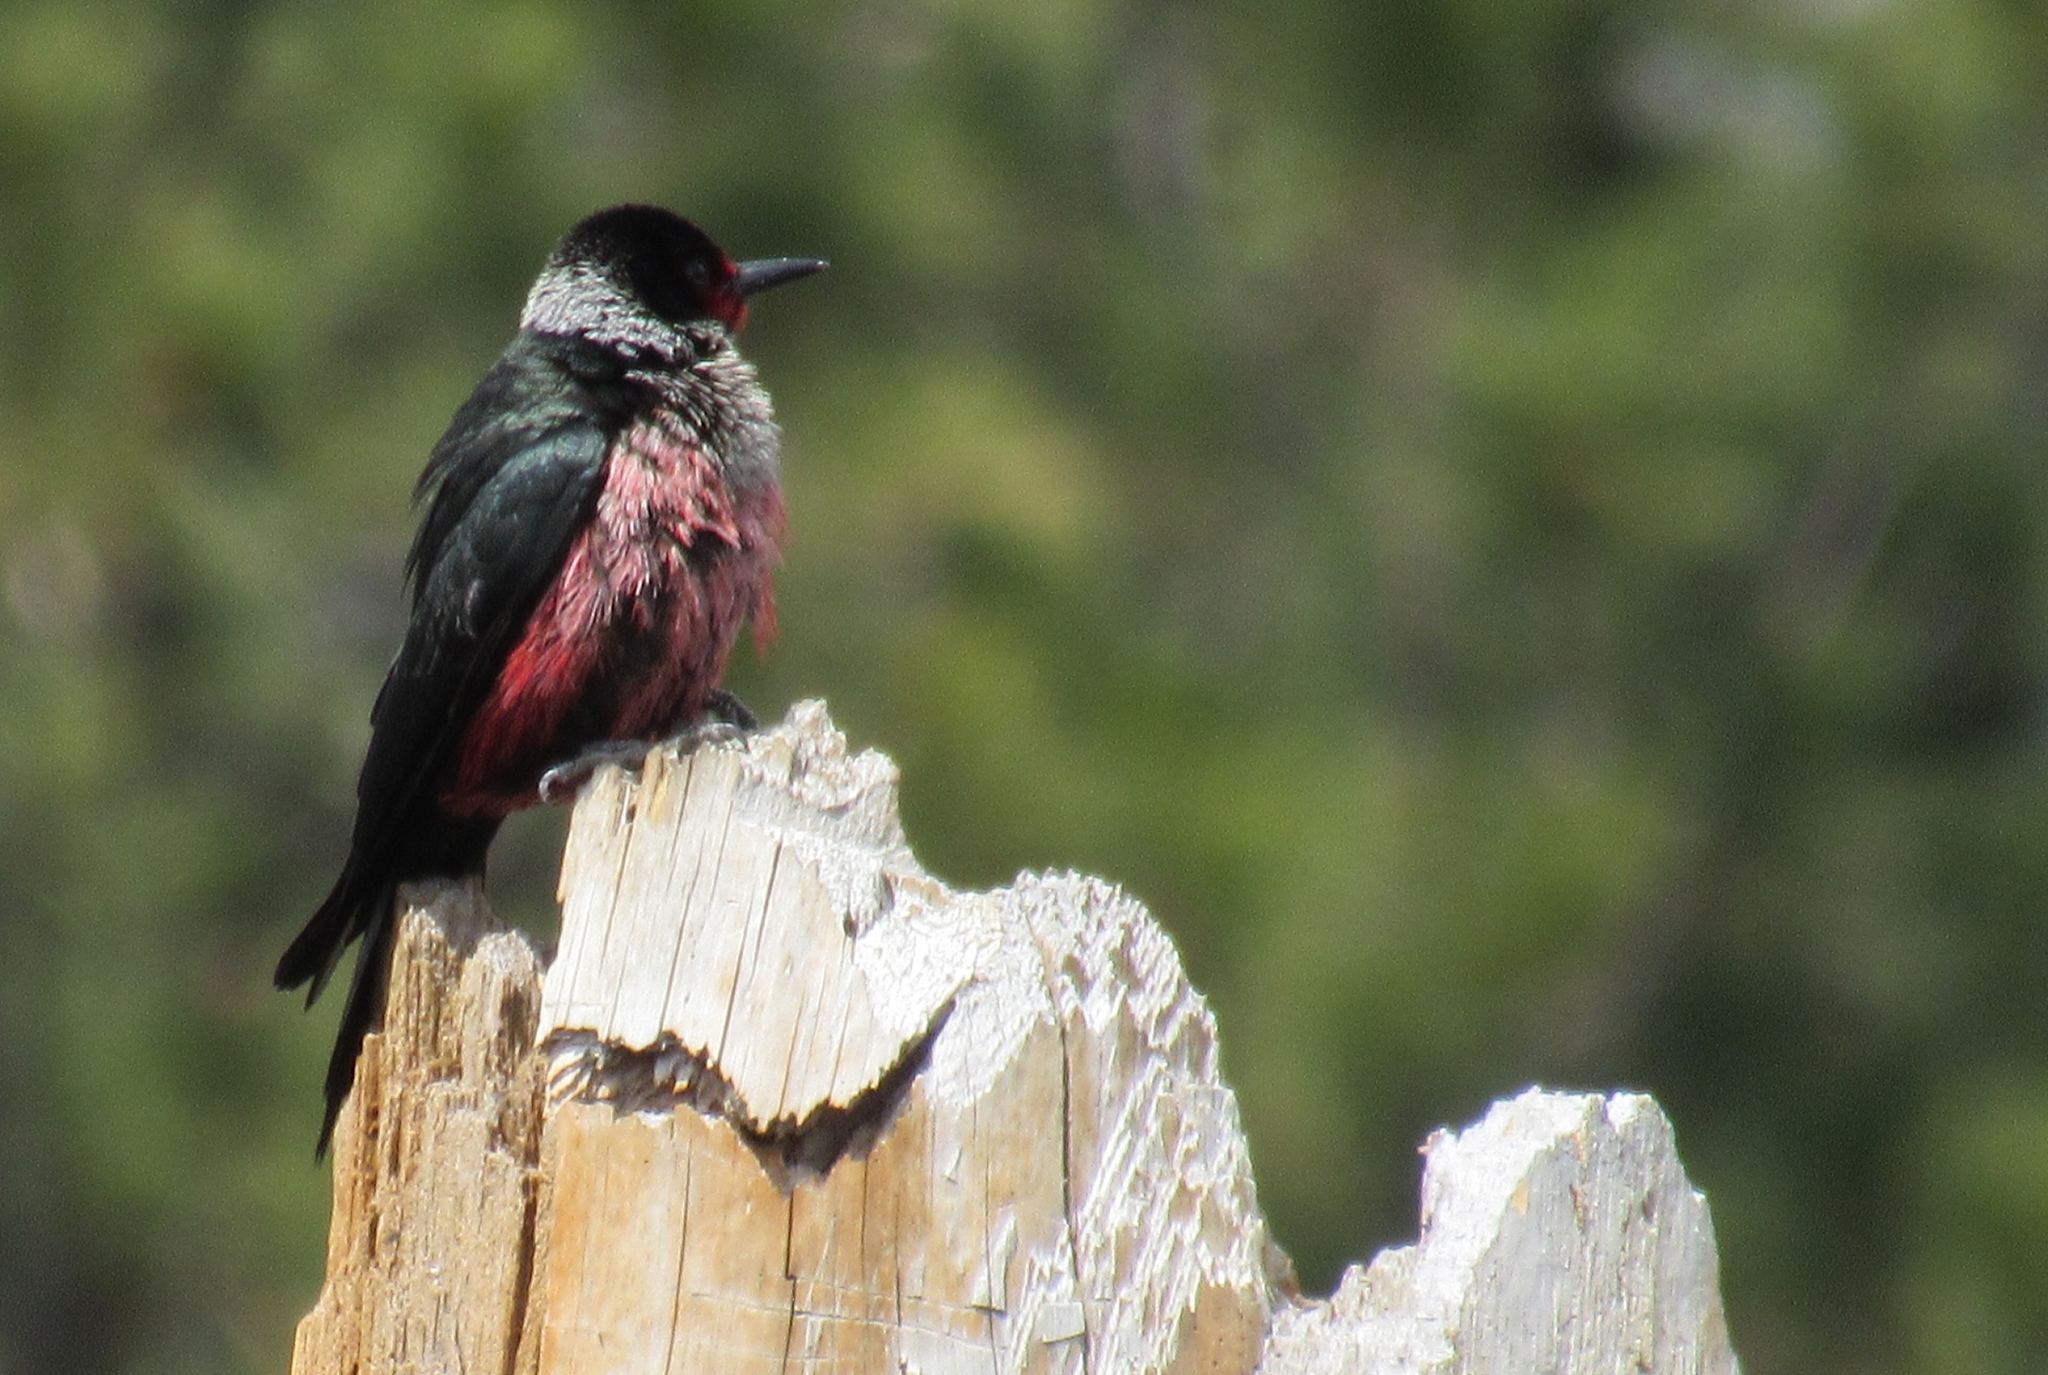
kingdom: Animalia
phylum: Chordata
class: Aves
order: Piciformes
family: Picidae
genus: Melanerpes
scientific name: Melanerpes lewis
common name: Lewis's woodpecker
